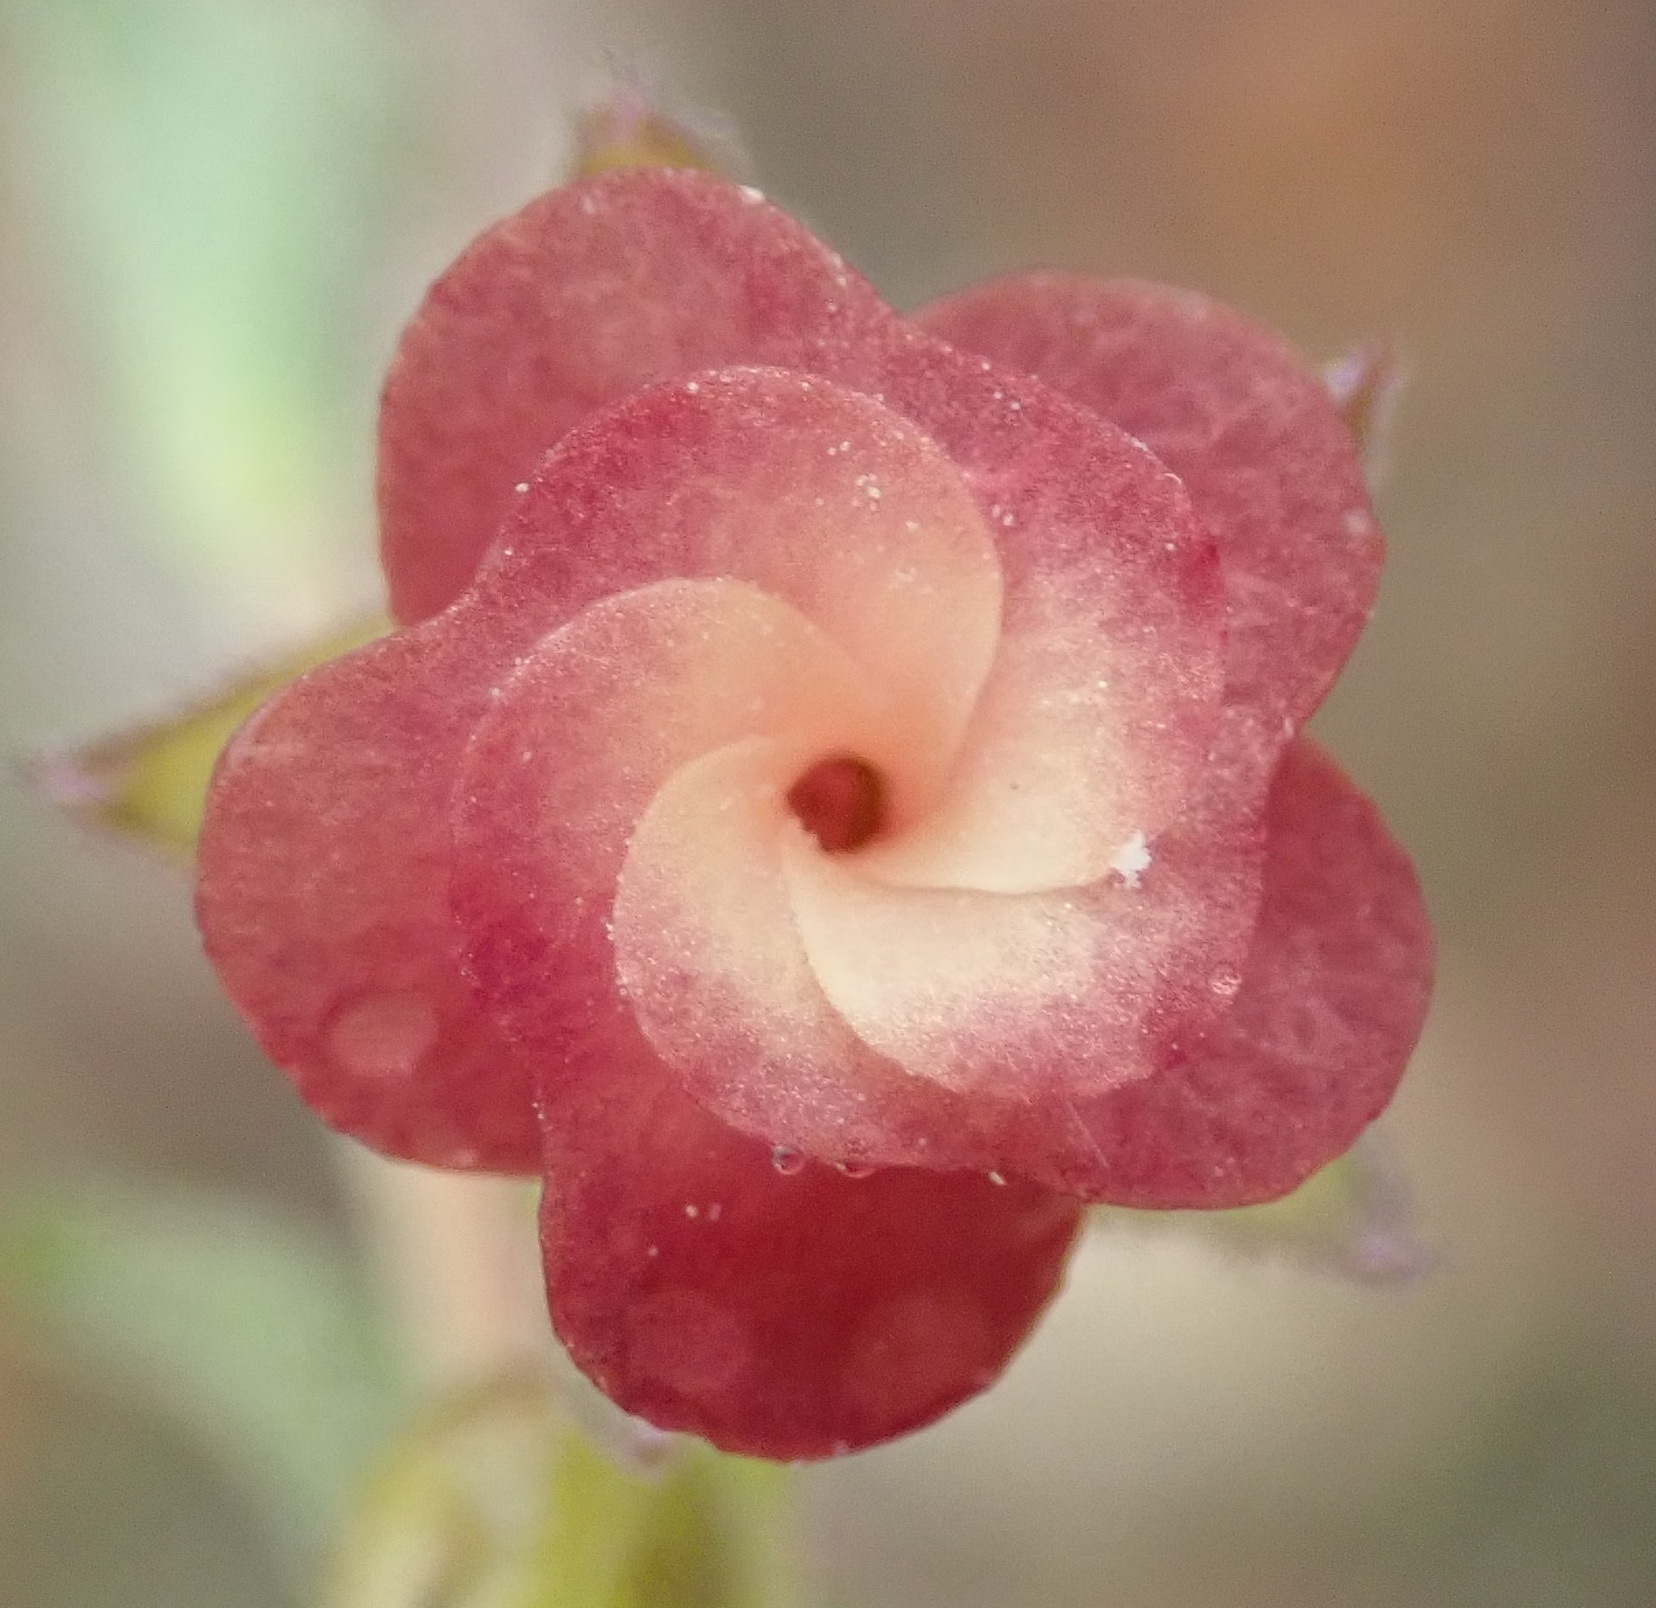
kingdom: Plantae
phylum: Tracheophyta
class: Magnoliopsida
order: Malvales
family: Malvaceae
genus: Hermannia
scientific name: Hermannia flammula
